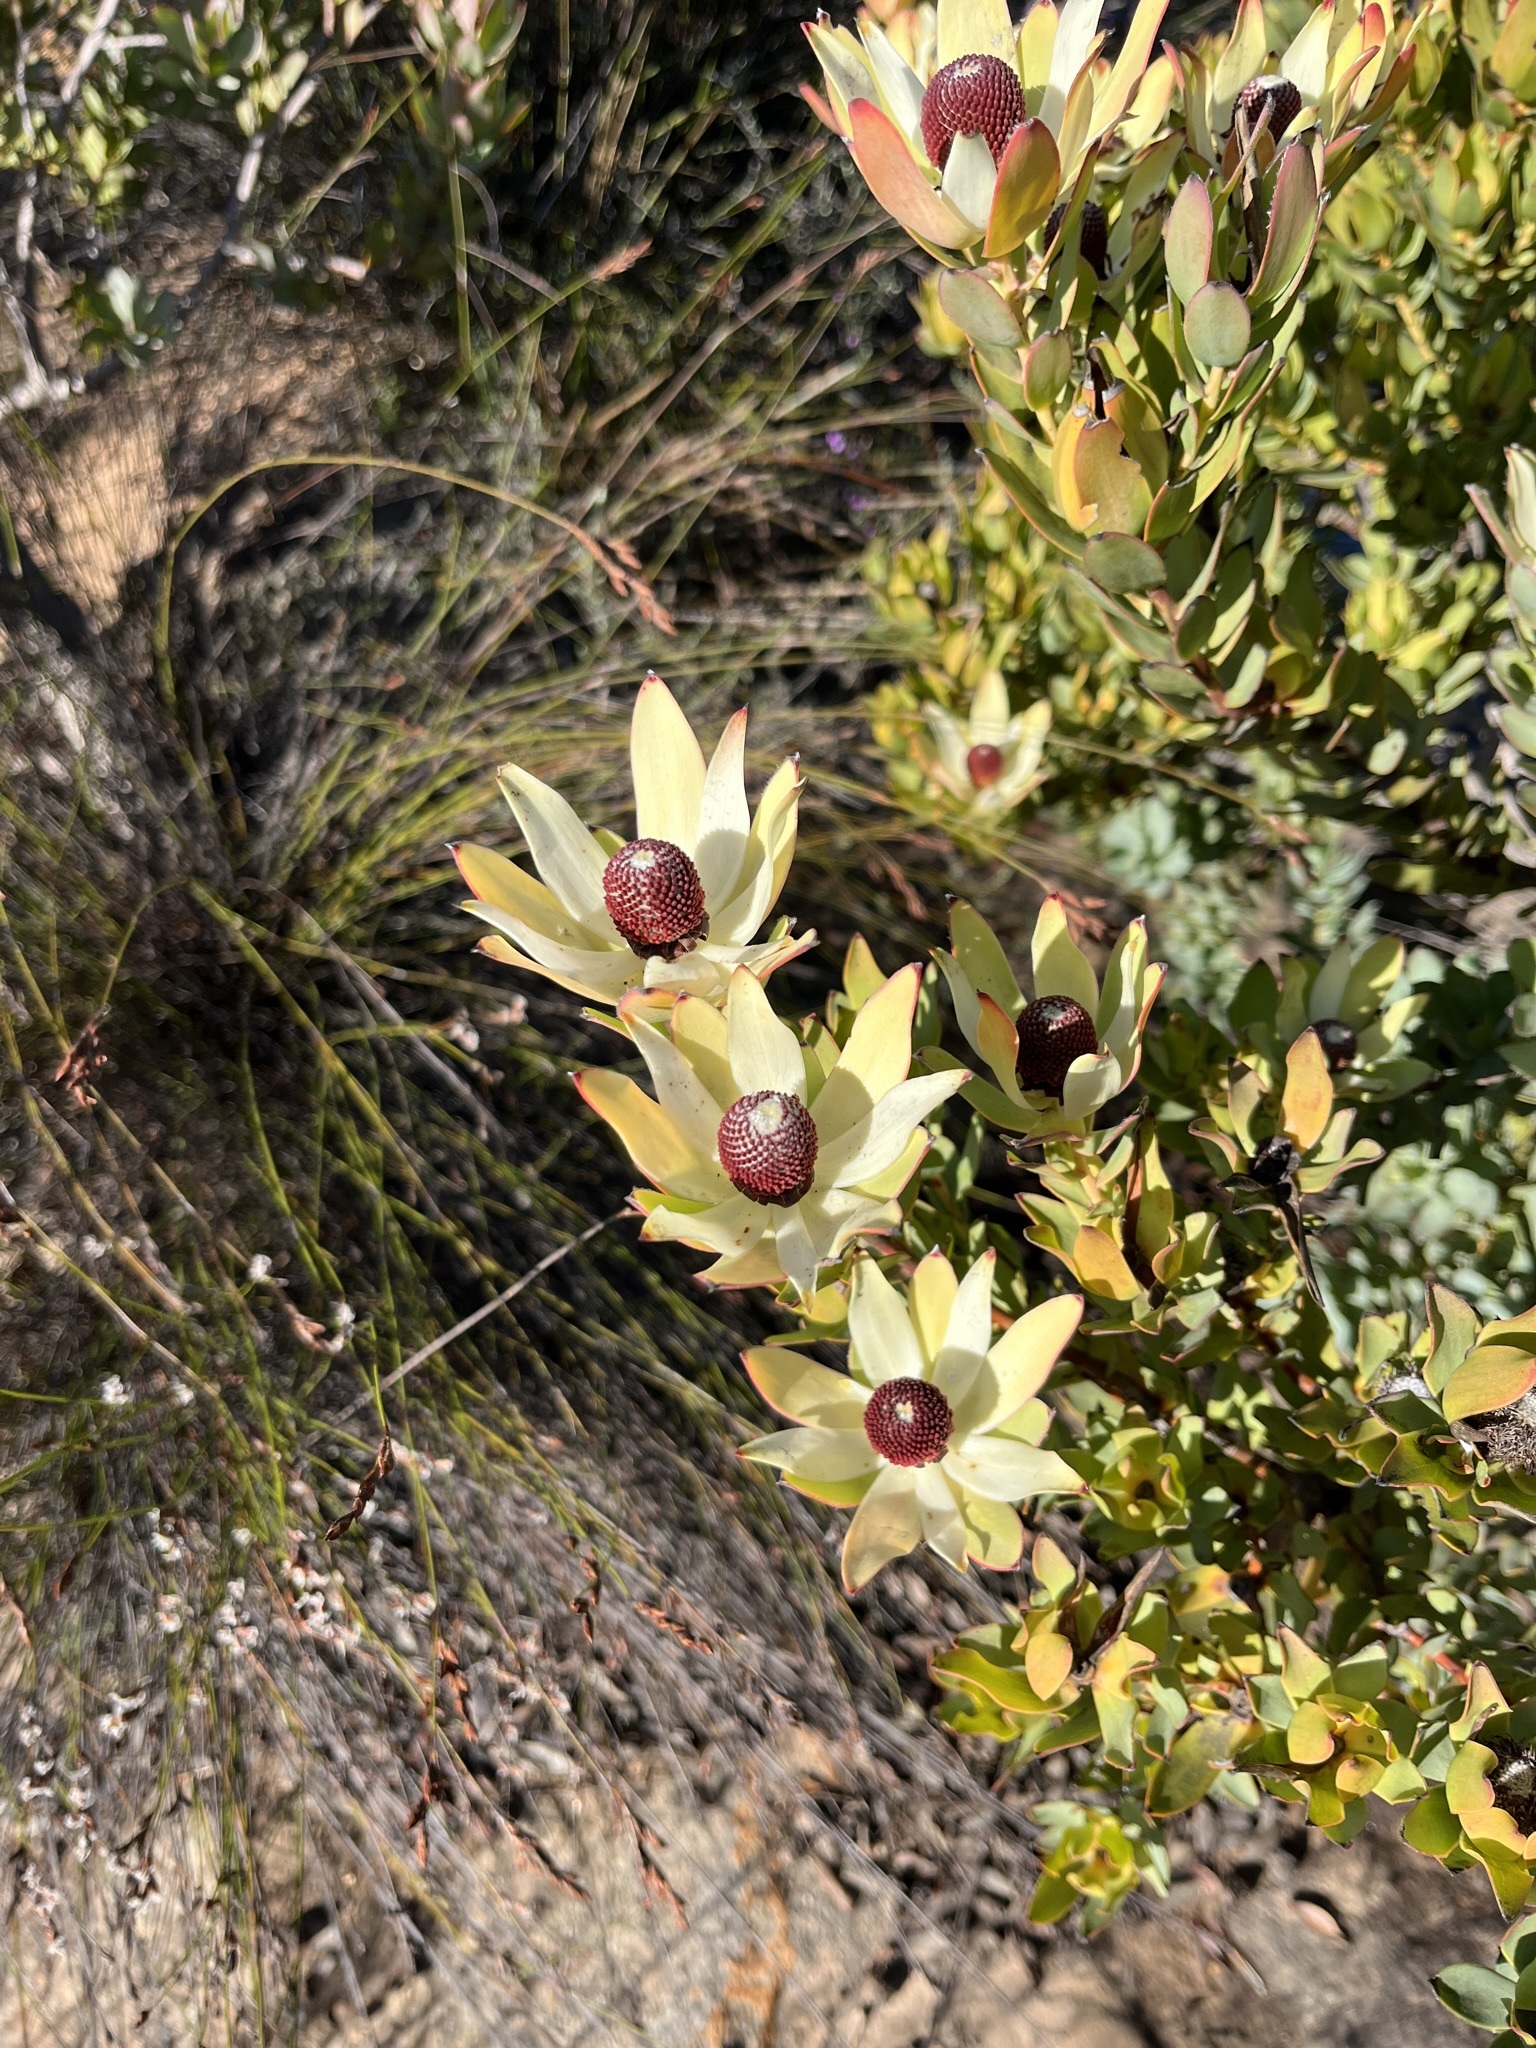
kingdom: Plantae
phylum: Tracheophyta
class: Magnoliopsida
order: Proteales
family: Proteaceae
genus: Leucadendron
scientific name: Leucadendron procerum
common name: Ivory conebush
